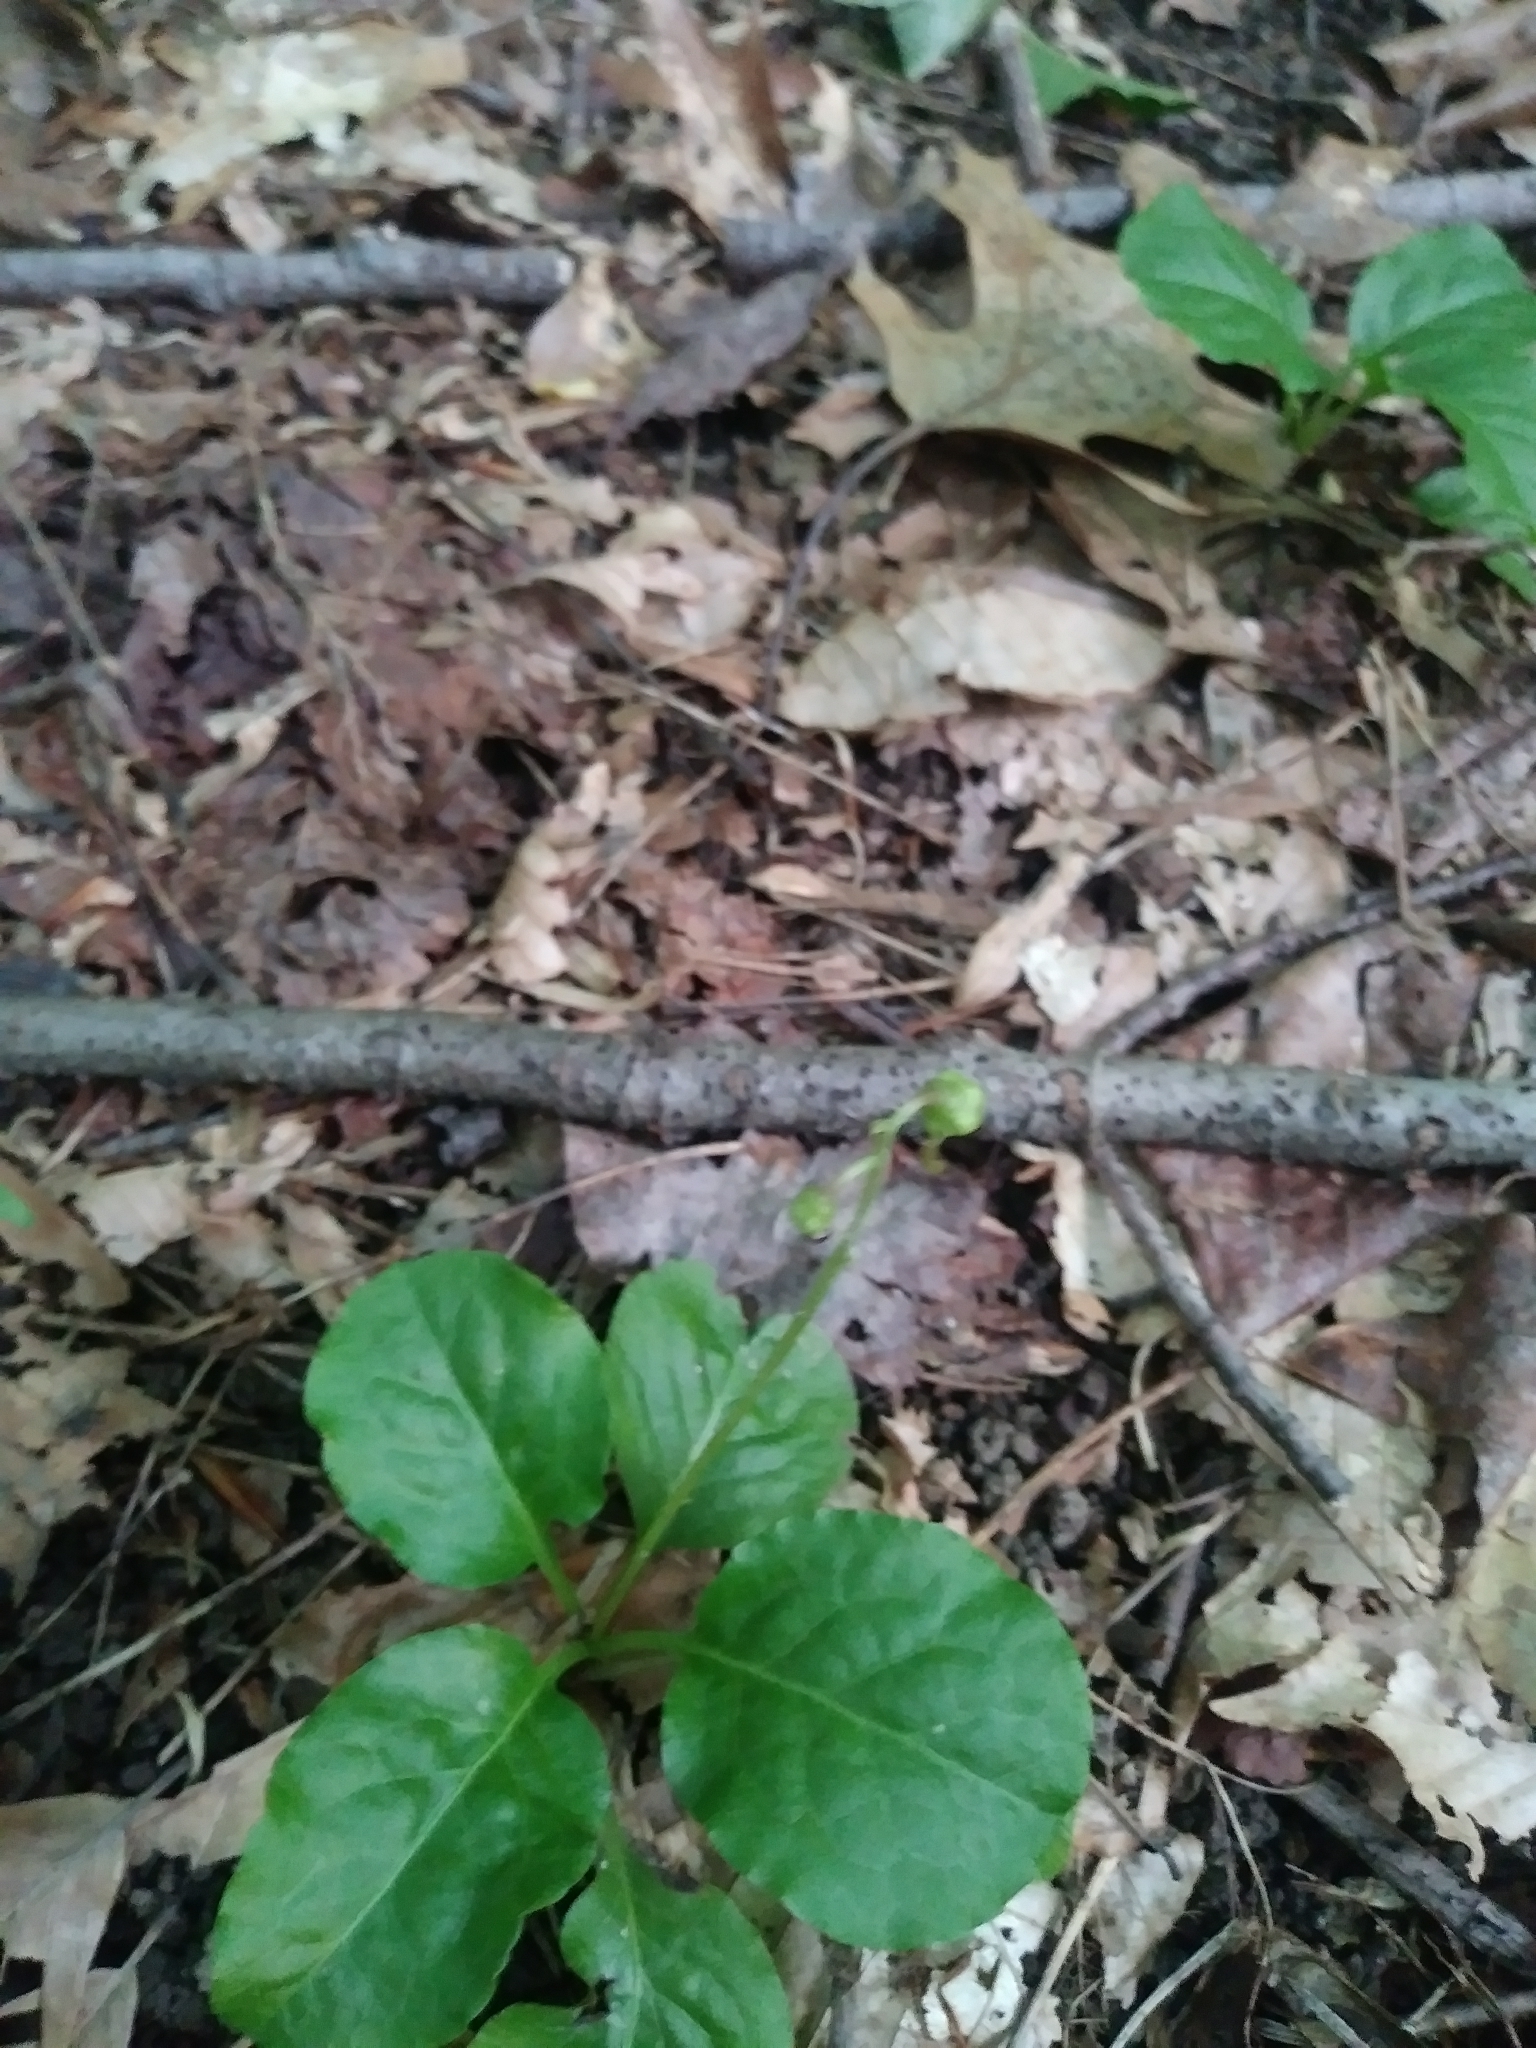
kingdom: Plantae
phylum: Tracheophyta
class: Magnoliopsida
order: Ericales
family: Ericaceae
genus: Pyrola
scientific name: Pyrola elliptica
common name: Shinleaf
